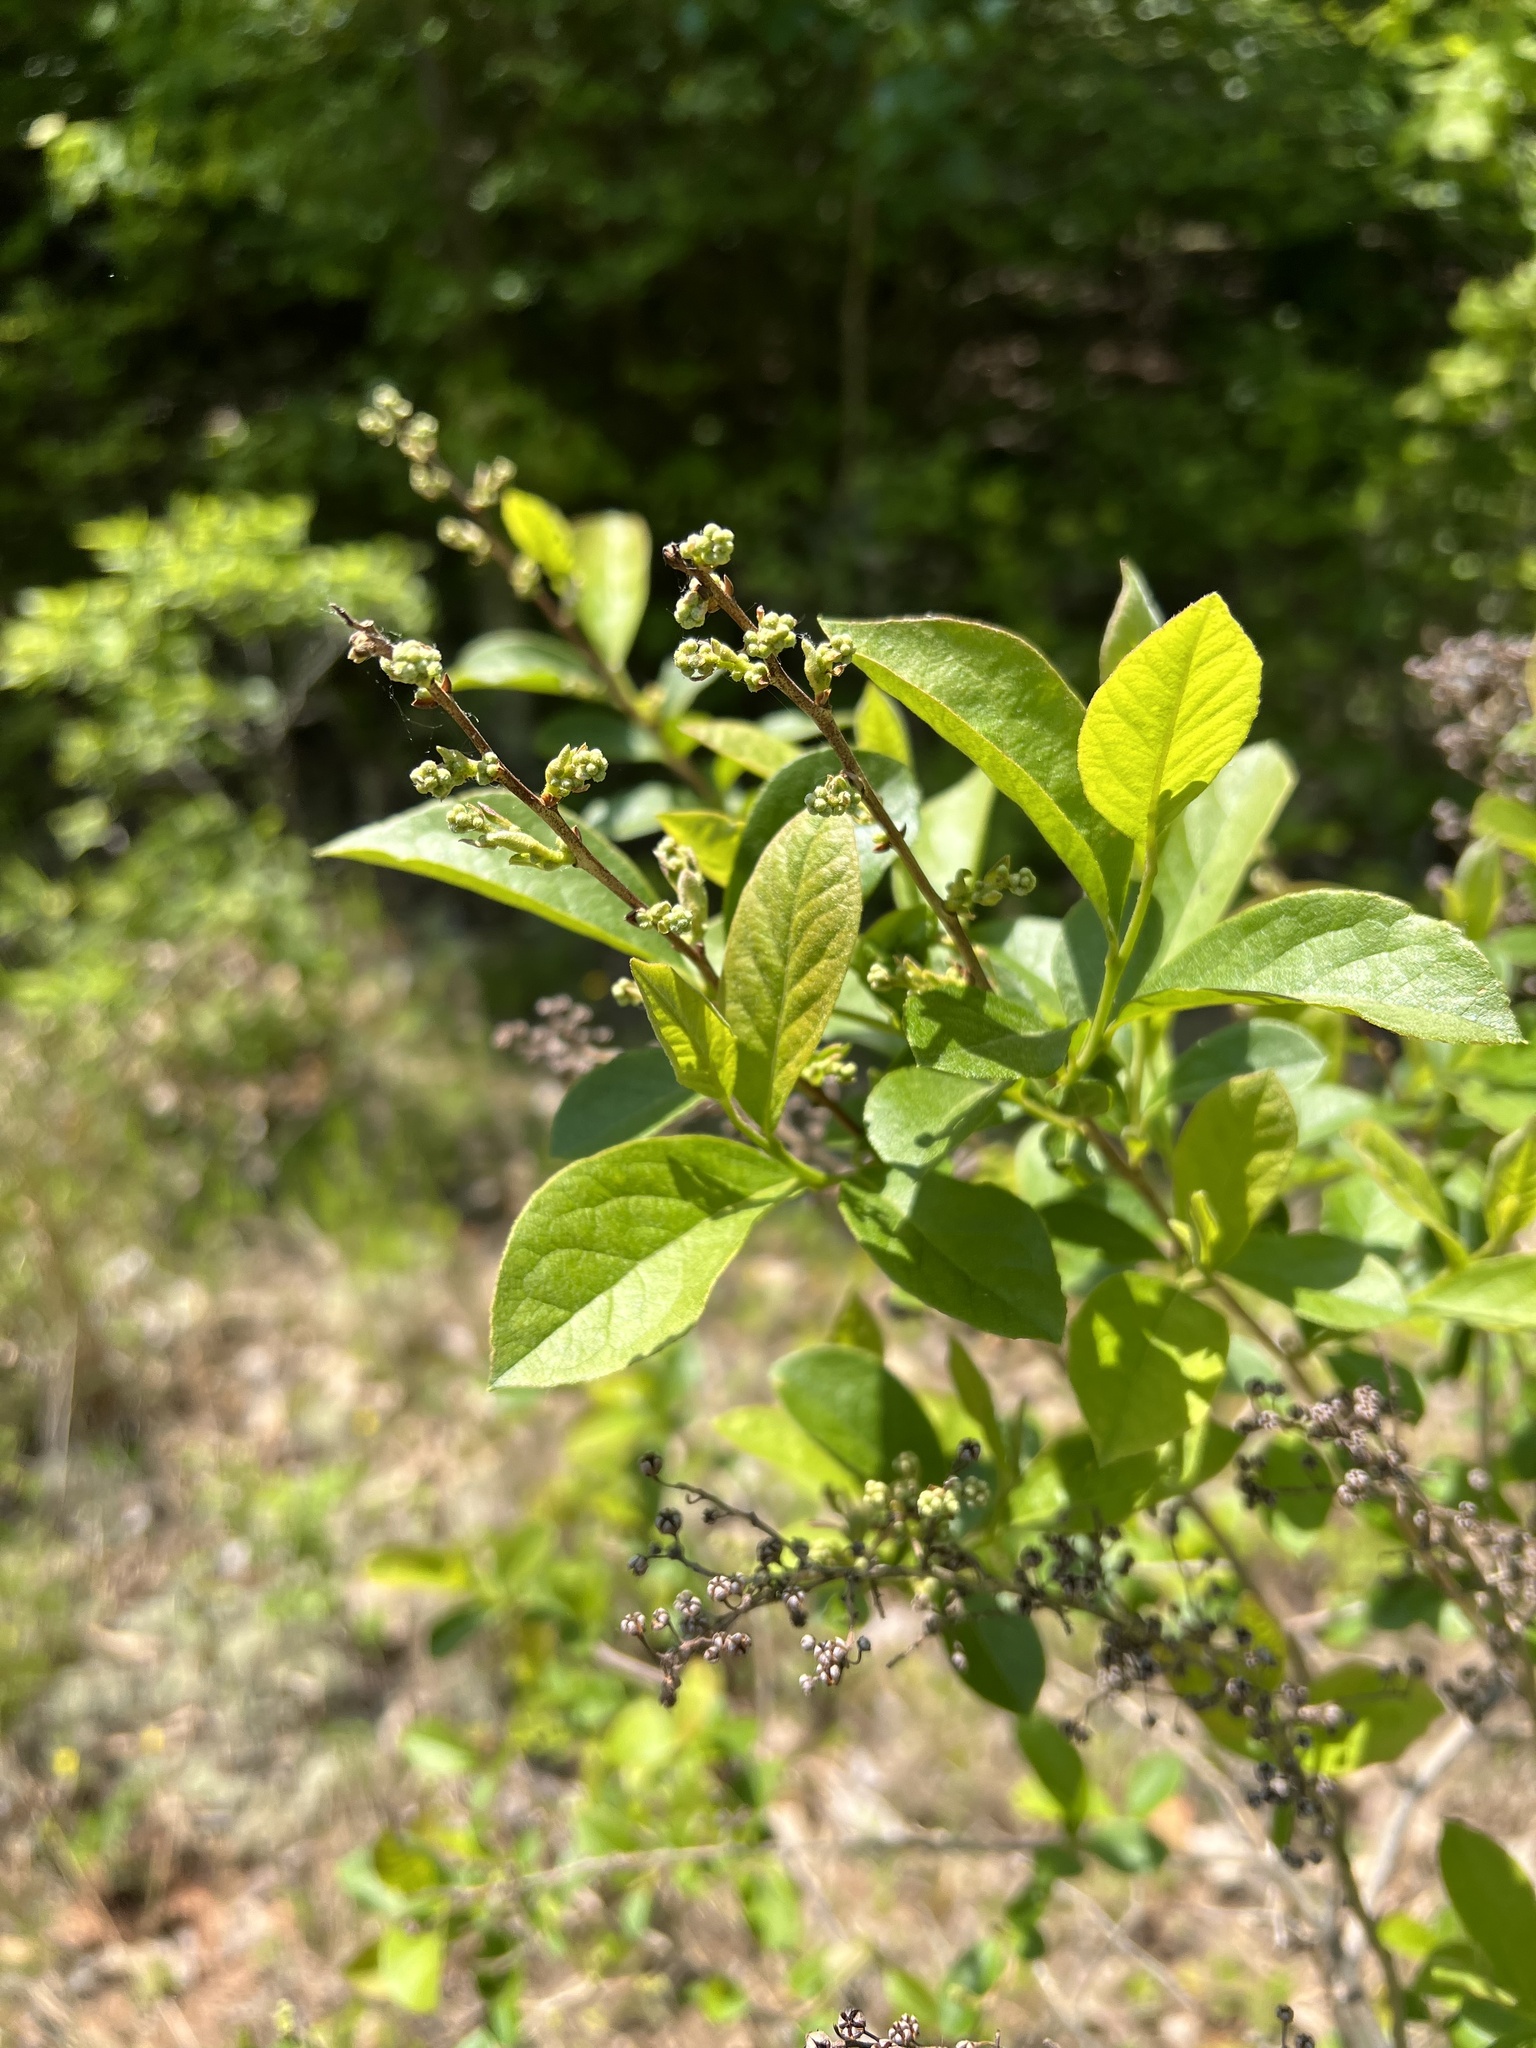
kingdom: Plantae
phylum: Tracheophyta
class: Magnoliopsida
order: Ericales
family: Ericaceae
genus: Lyonia
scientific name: Lyonia ligustrina
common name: Maleberry
